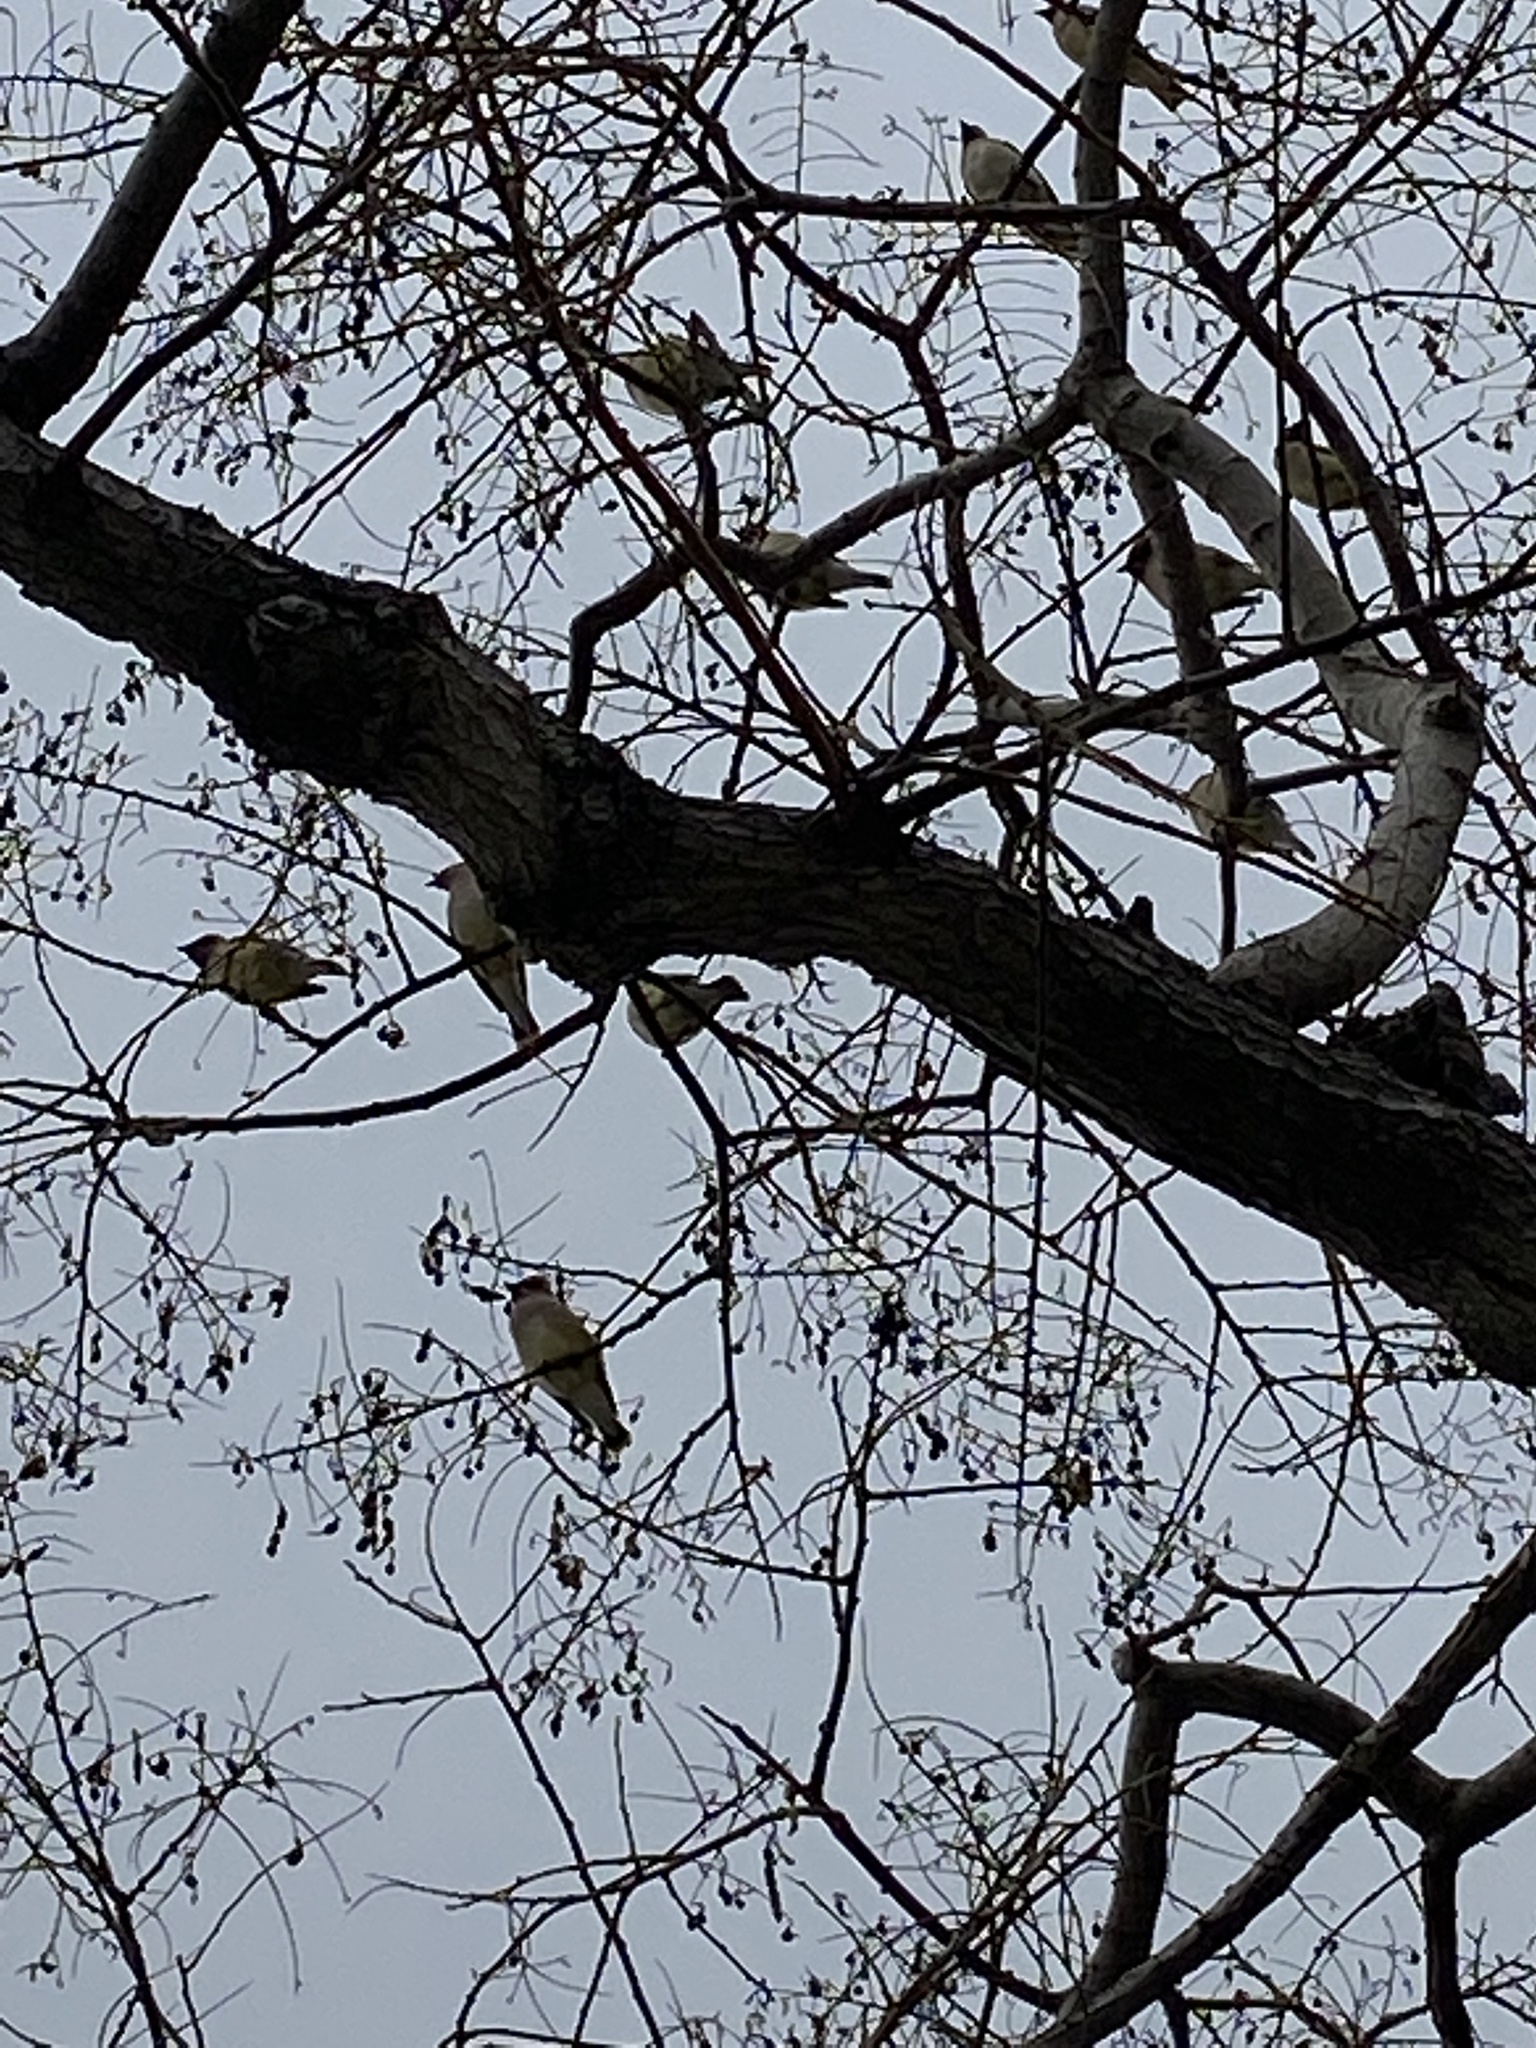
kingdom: Animalia
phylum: Chordata
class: Aves
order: Passeriformes
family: Bombycillidae
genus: Bombycilla
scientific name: Bombycilla cedrorum
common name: Cedar waxwing
